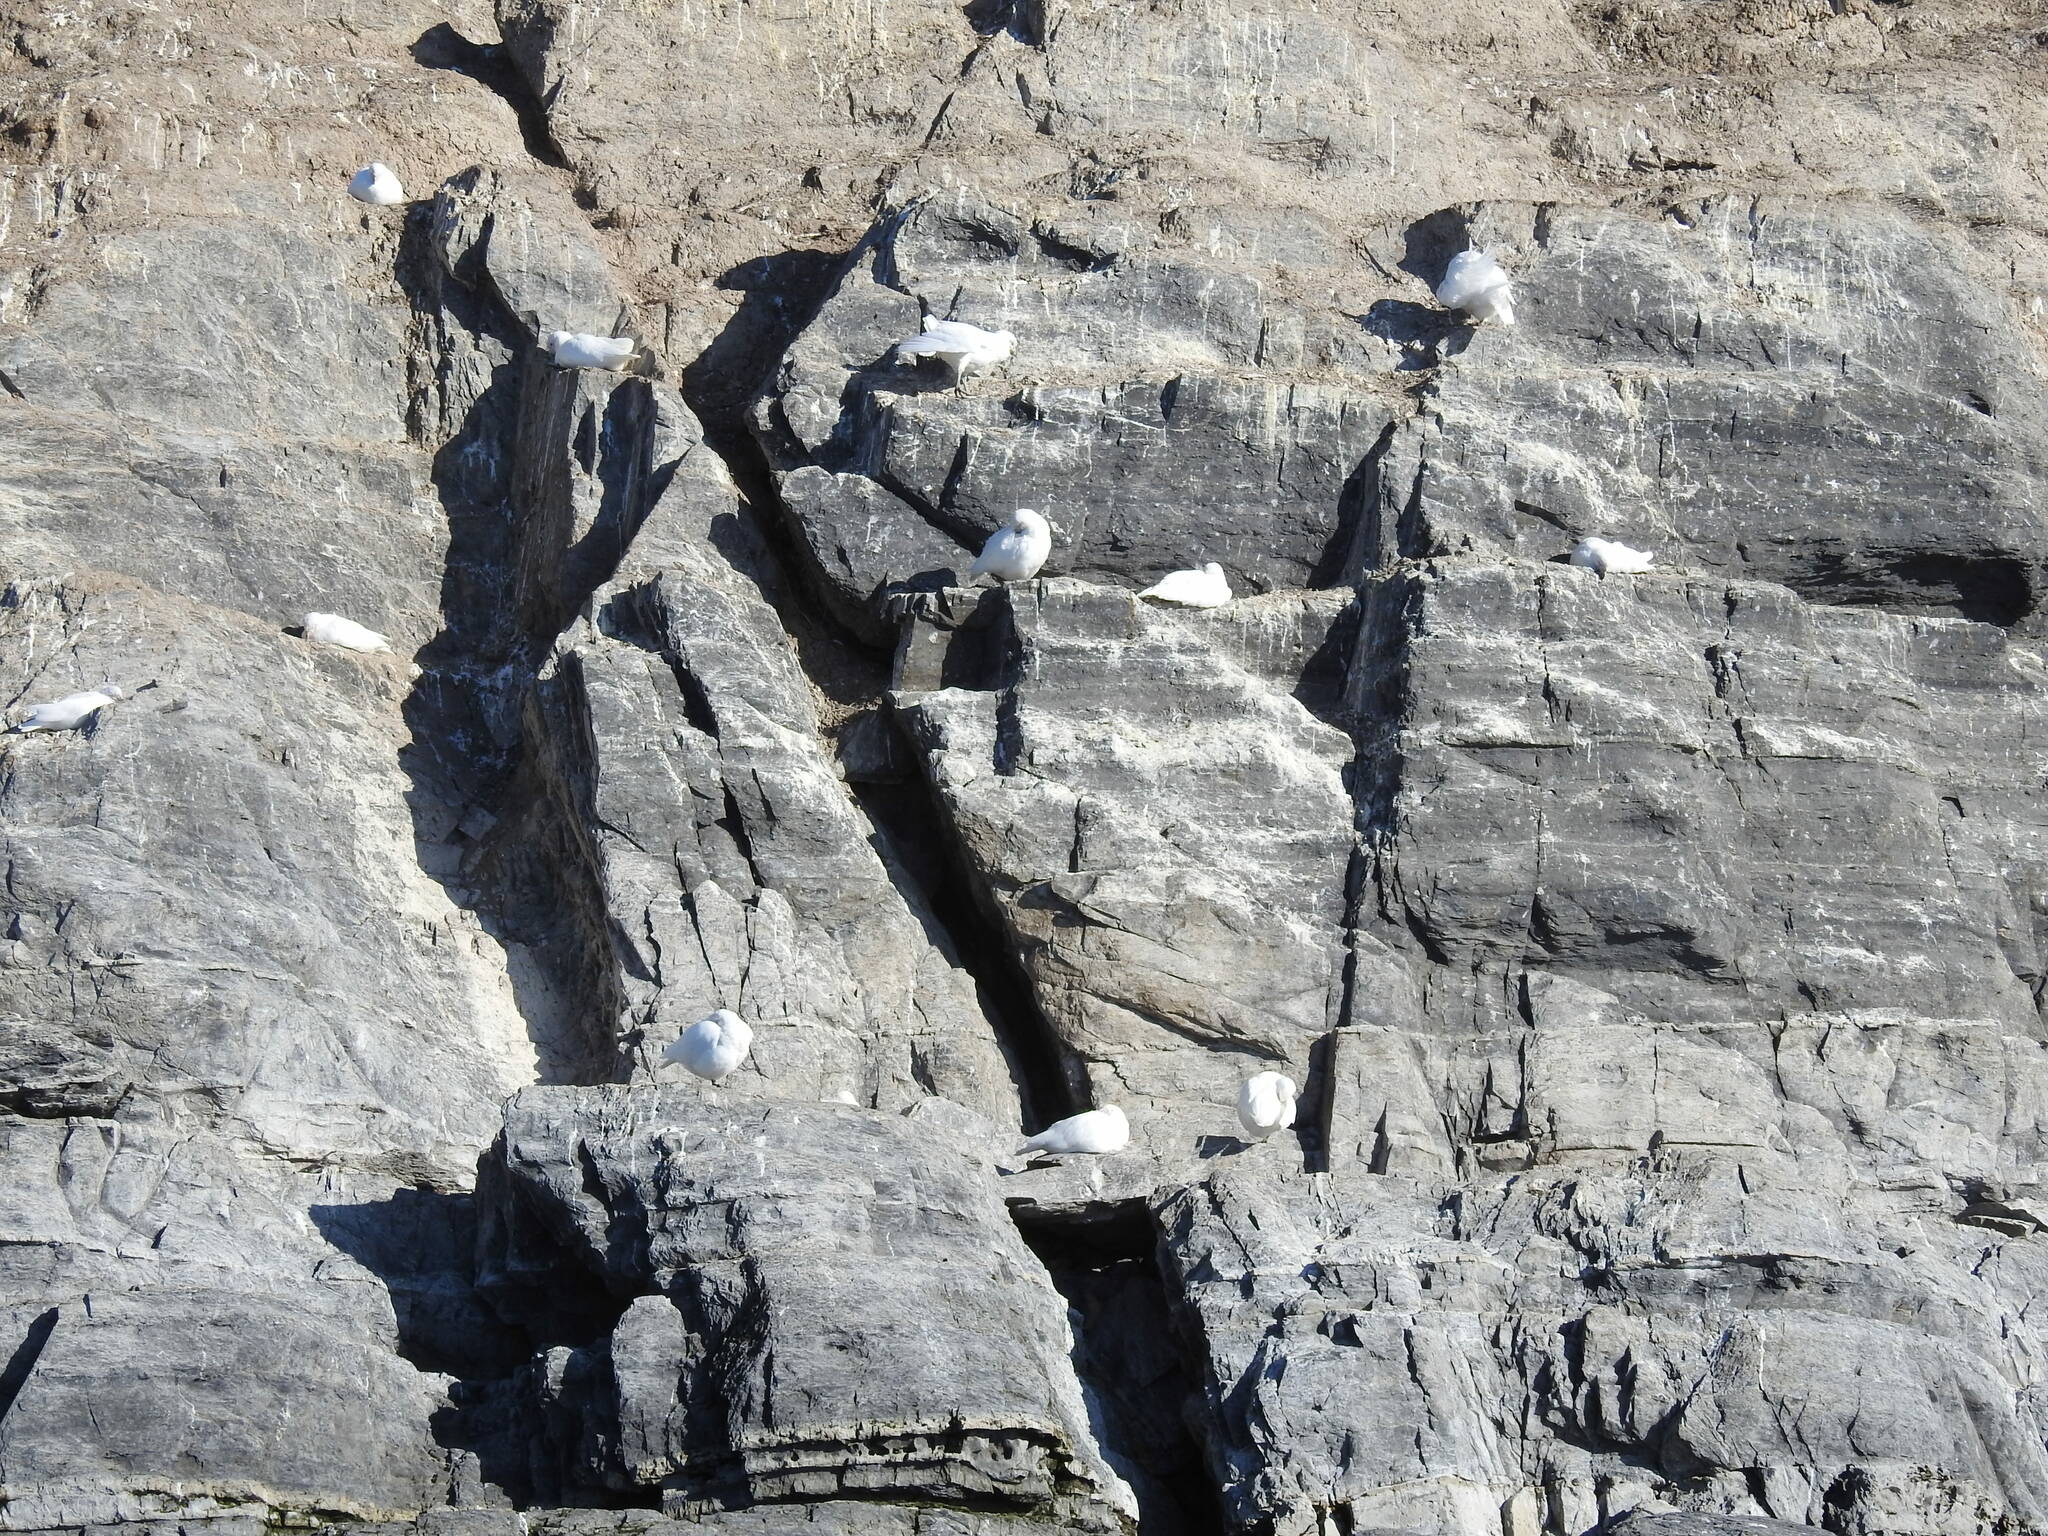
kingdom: Animalia
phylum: Chordata
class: Aves
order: Charadriiformes
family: Chionidae
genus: Chionis
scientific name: Chionis albus
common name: Snowy sheathbill
